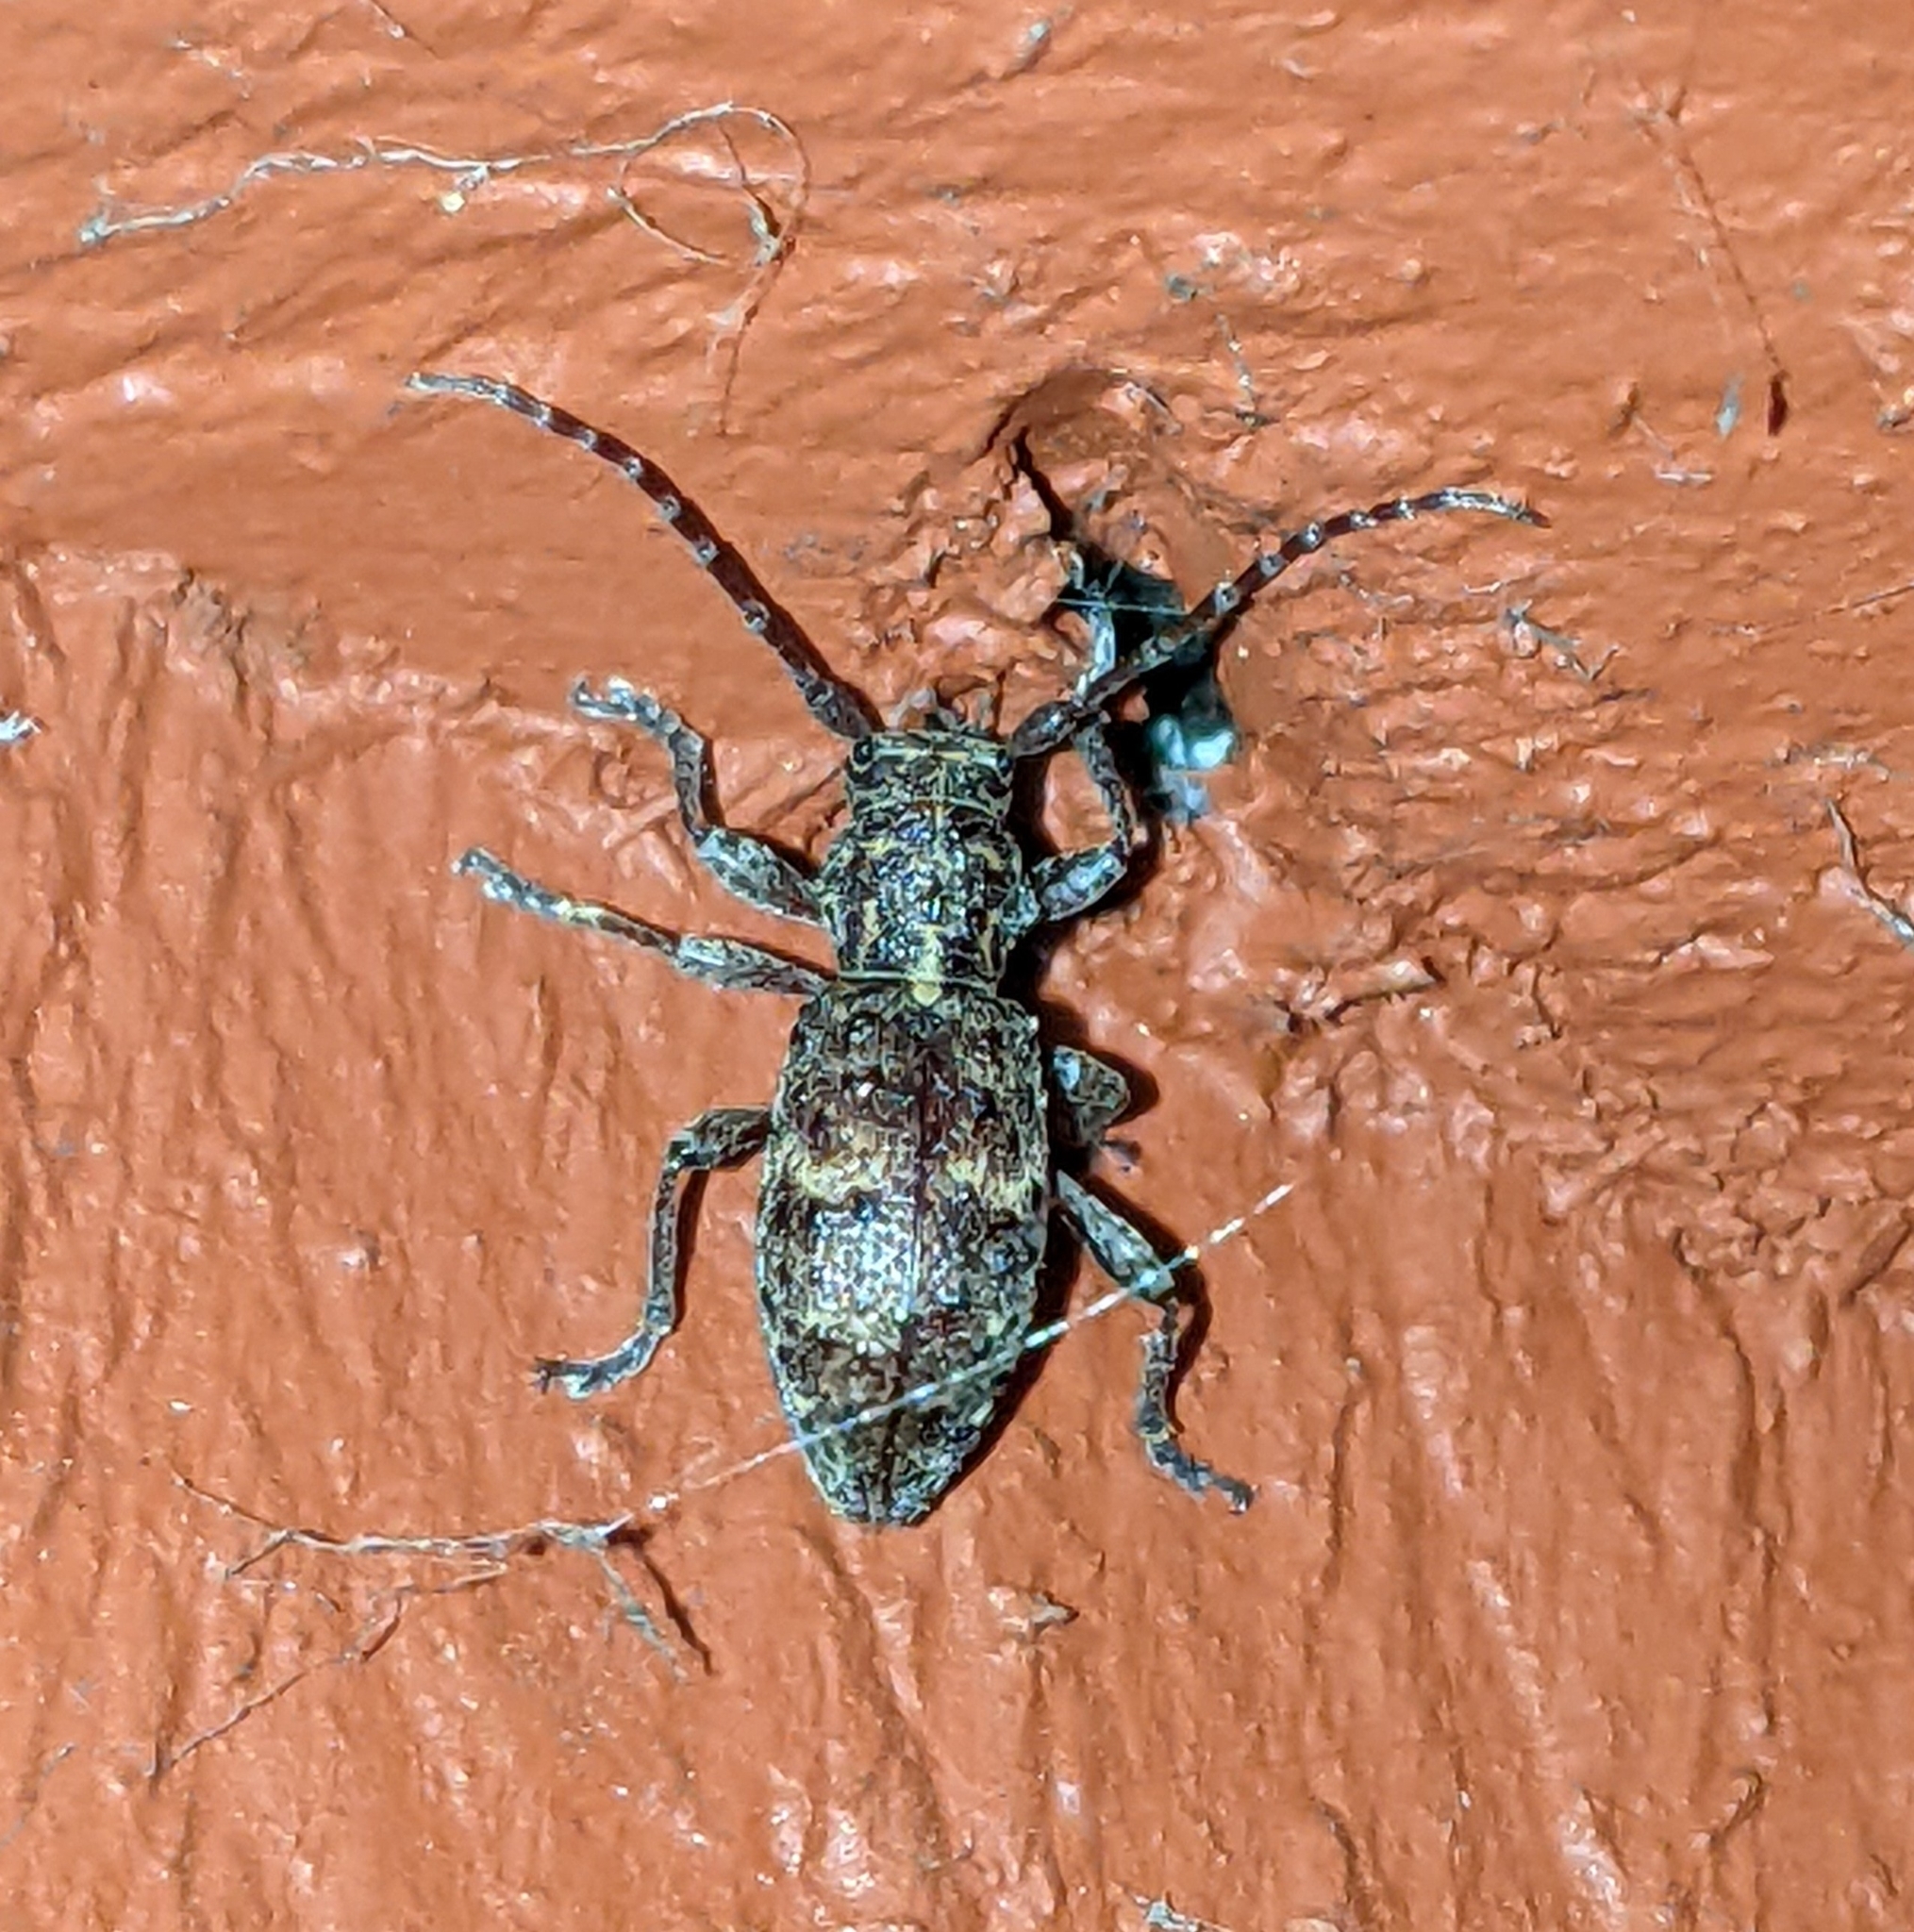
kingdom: Animalia
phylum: Arthropoda
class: Insecta
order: Coleoptera
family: Cerambycidae
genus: Plectrura
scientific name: Plectrura spinicauda
